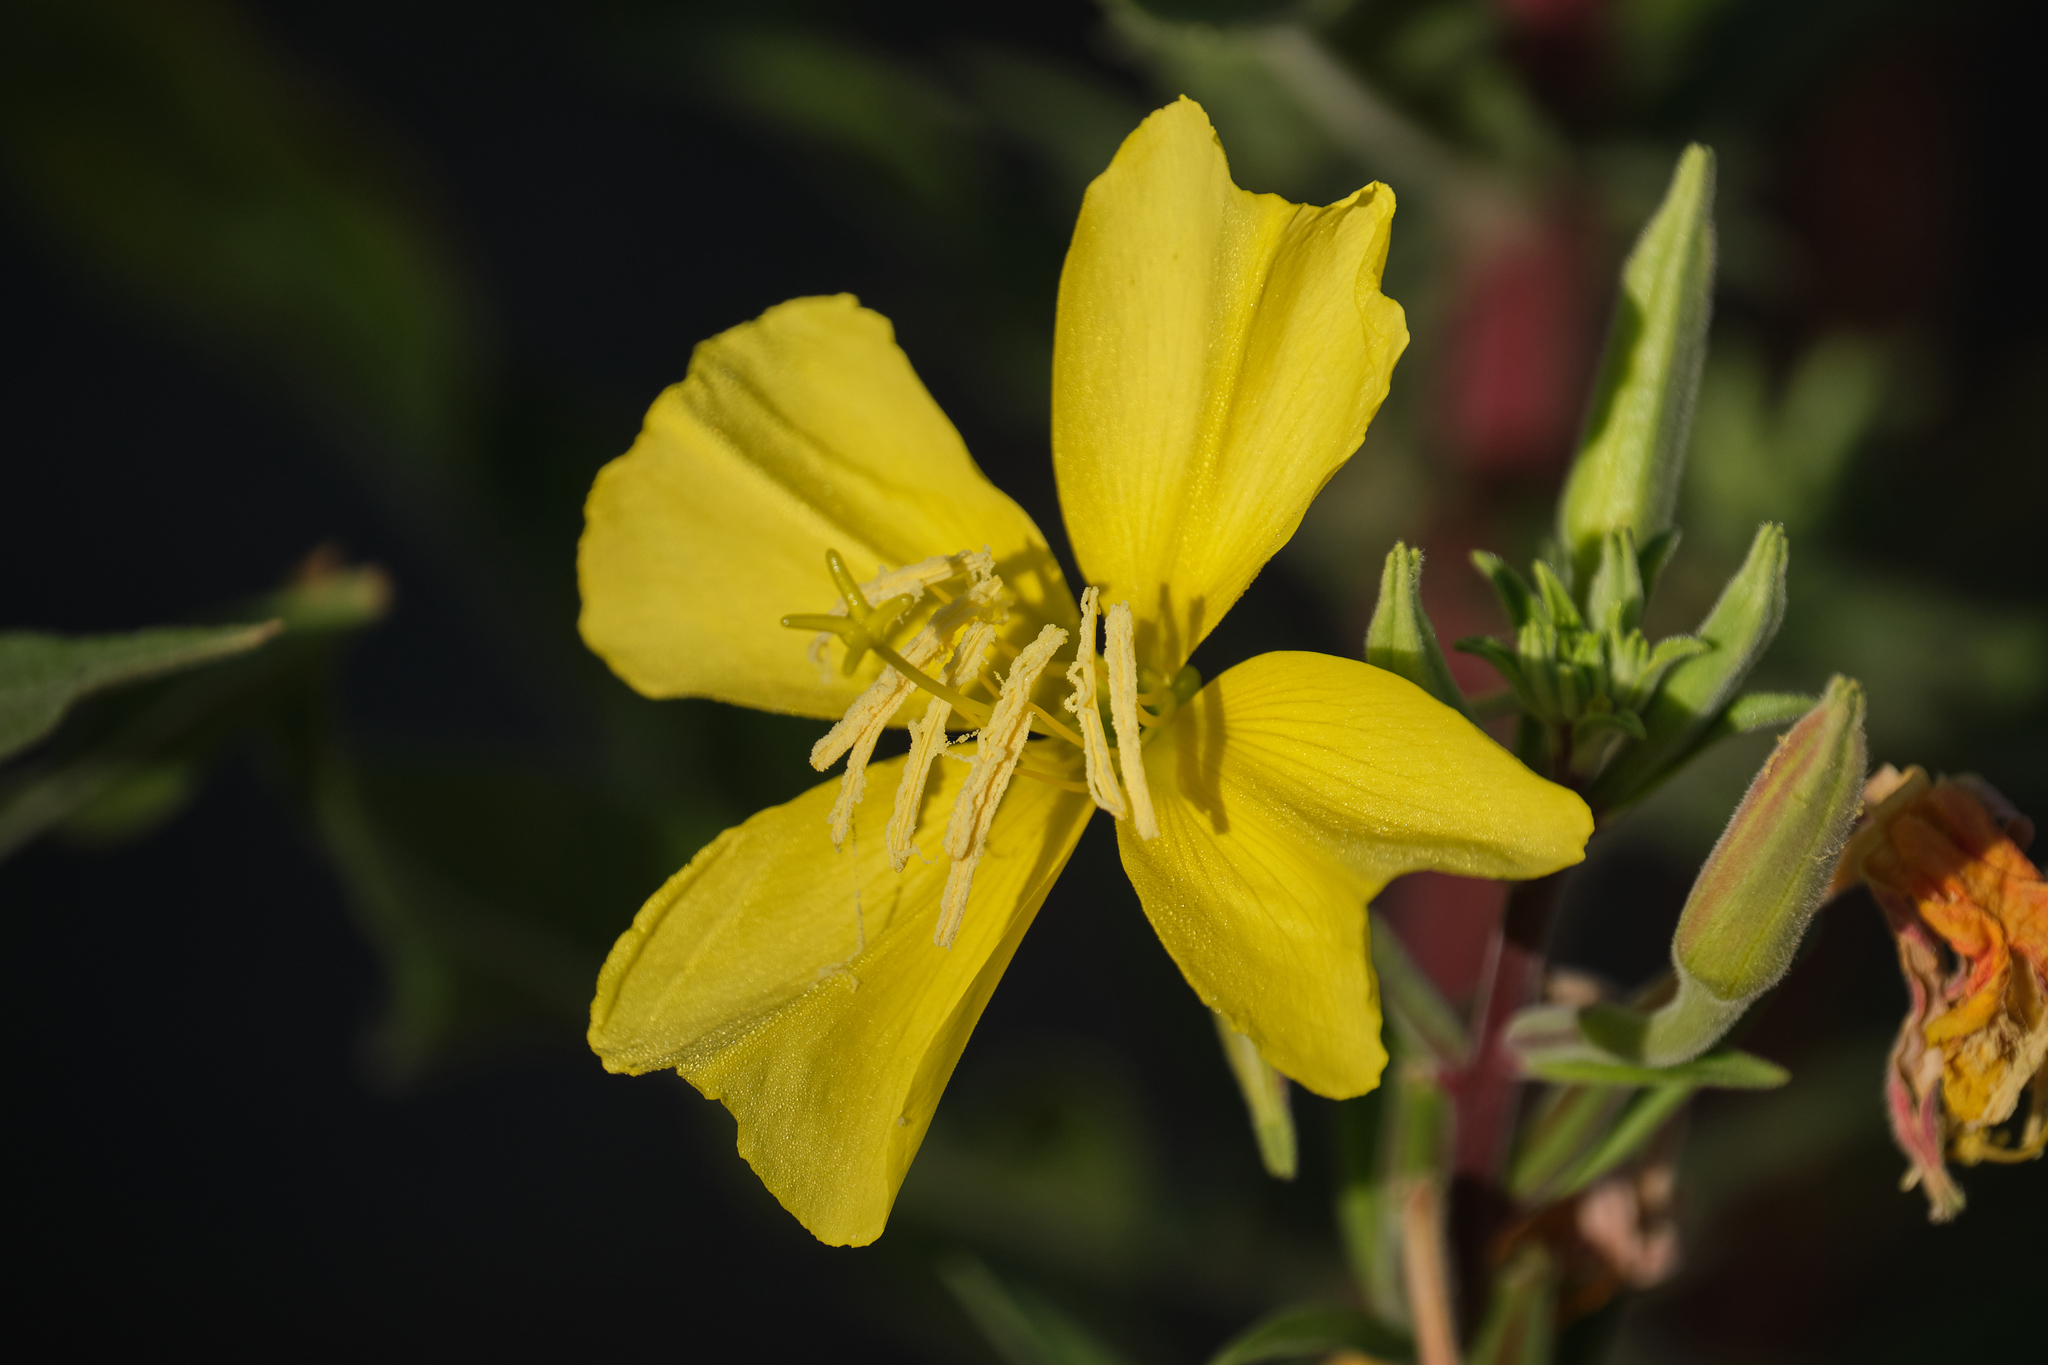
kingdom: Plantae
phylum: Tracheophyta
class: Magnoliopsida
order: Myrtales
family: Onagraceae
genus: Oenothera
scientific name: Oenothera elata
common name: Hooker's evening-primrose
